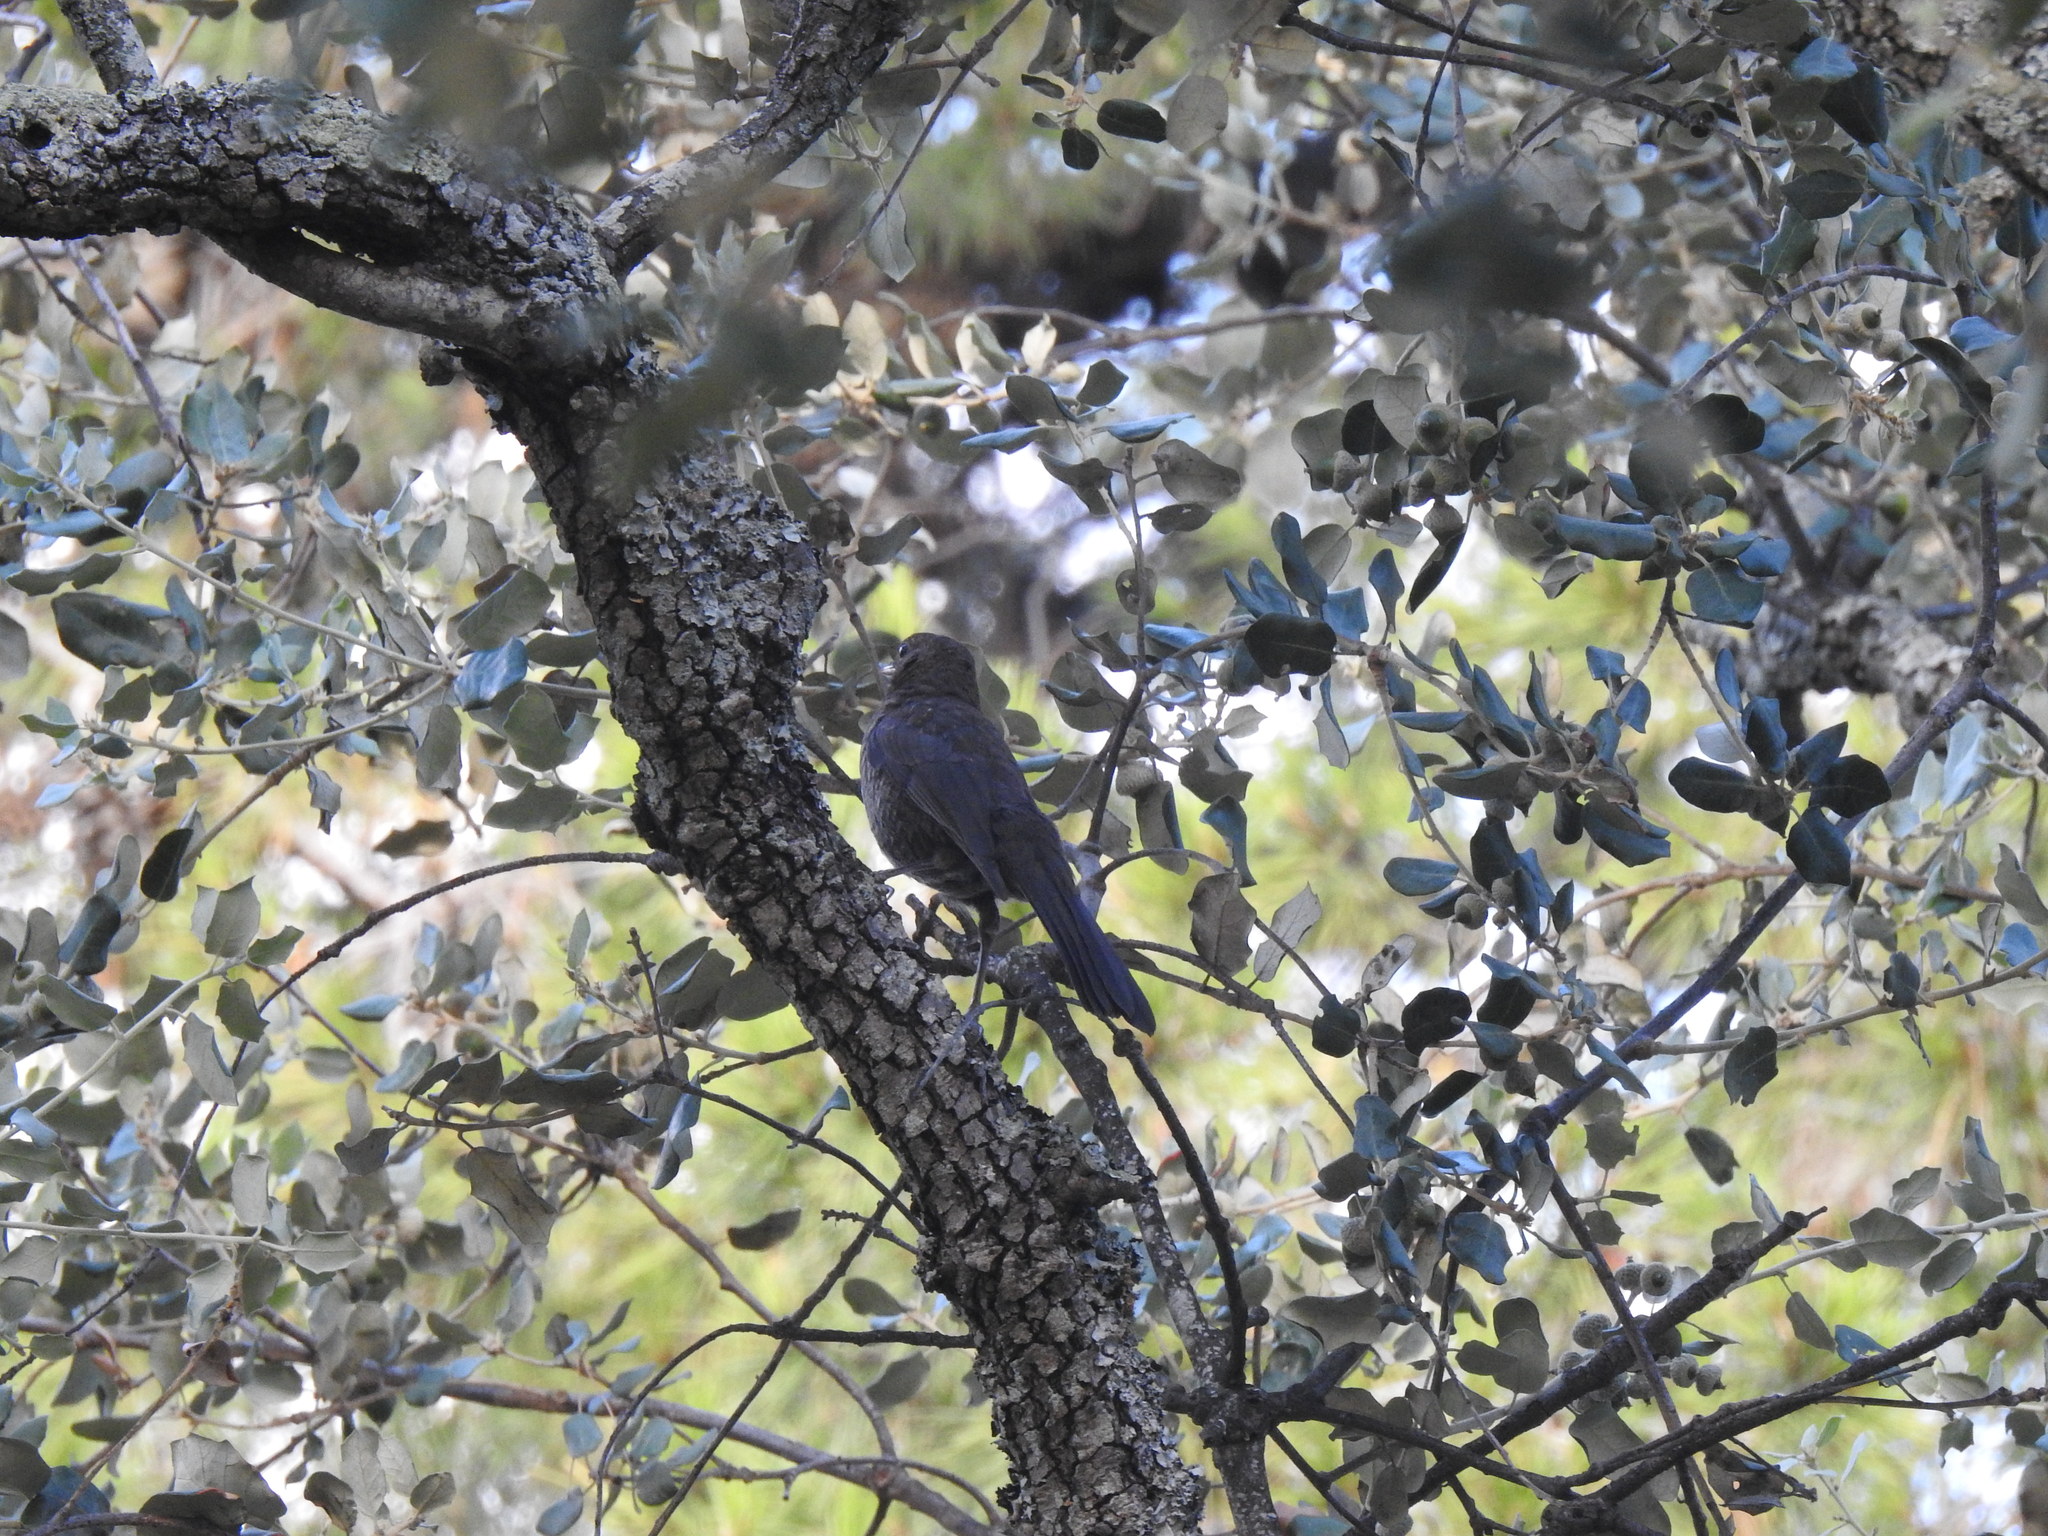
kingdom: Animalia
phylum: Chordata
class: Aves
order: Passeriformes
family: Turdidae
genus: Turdus
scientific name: Turdus merula
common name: Common blackbird
